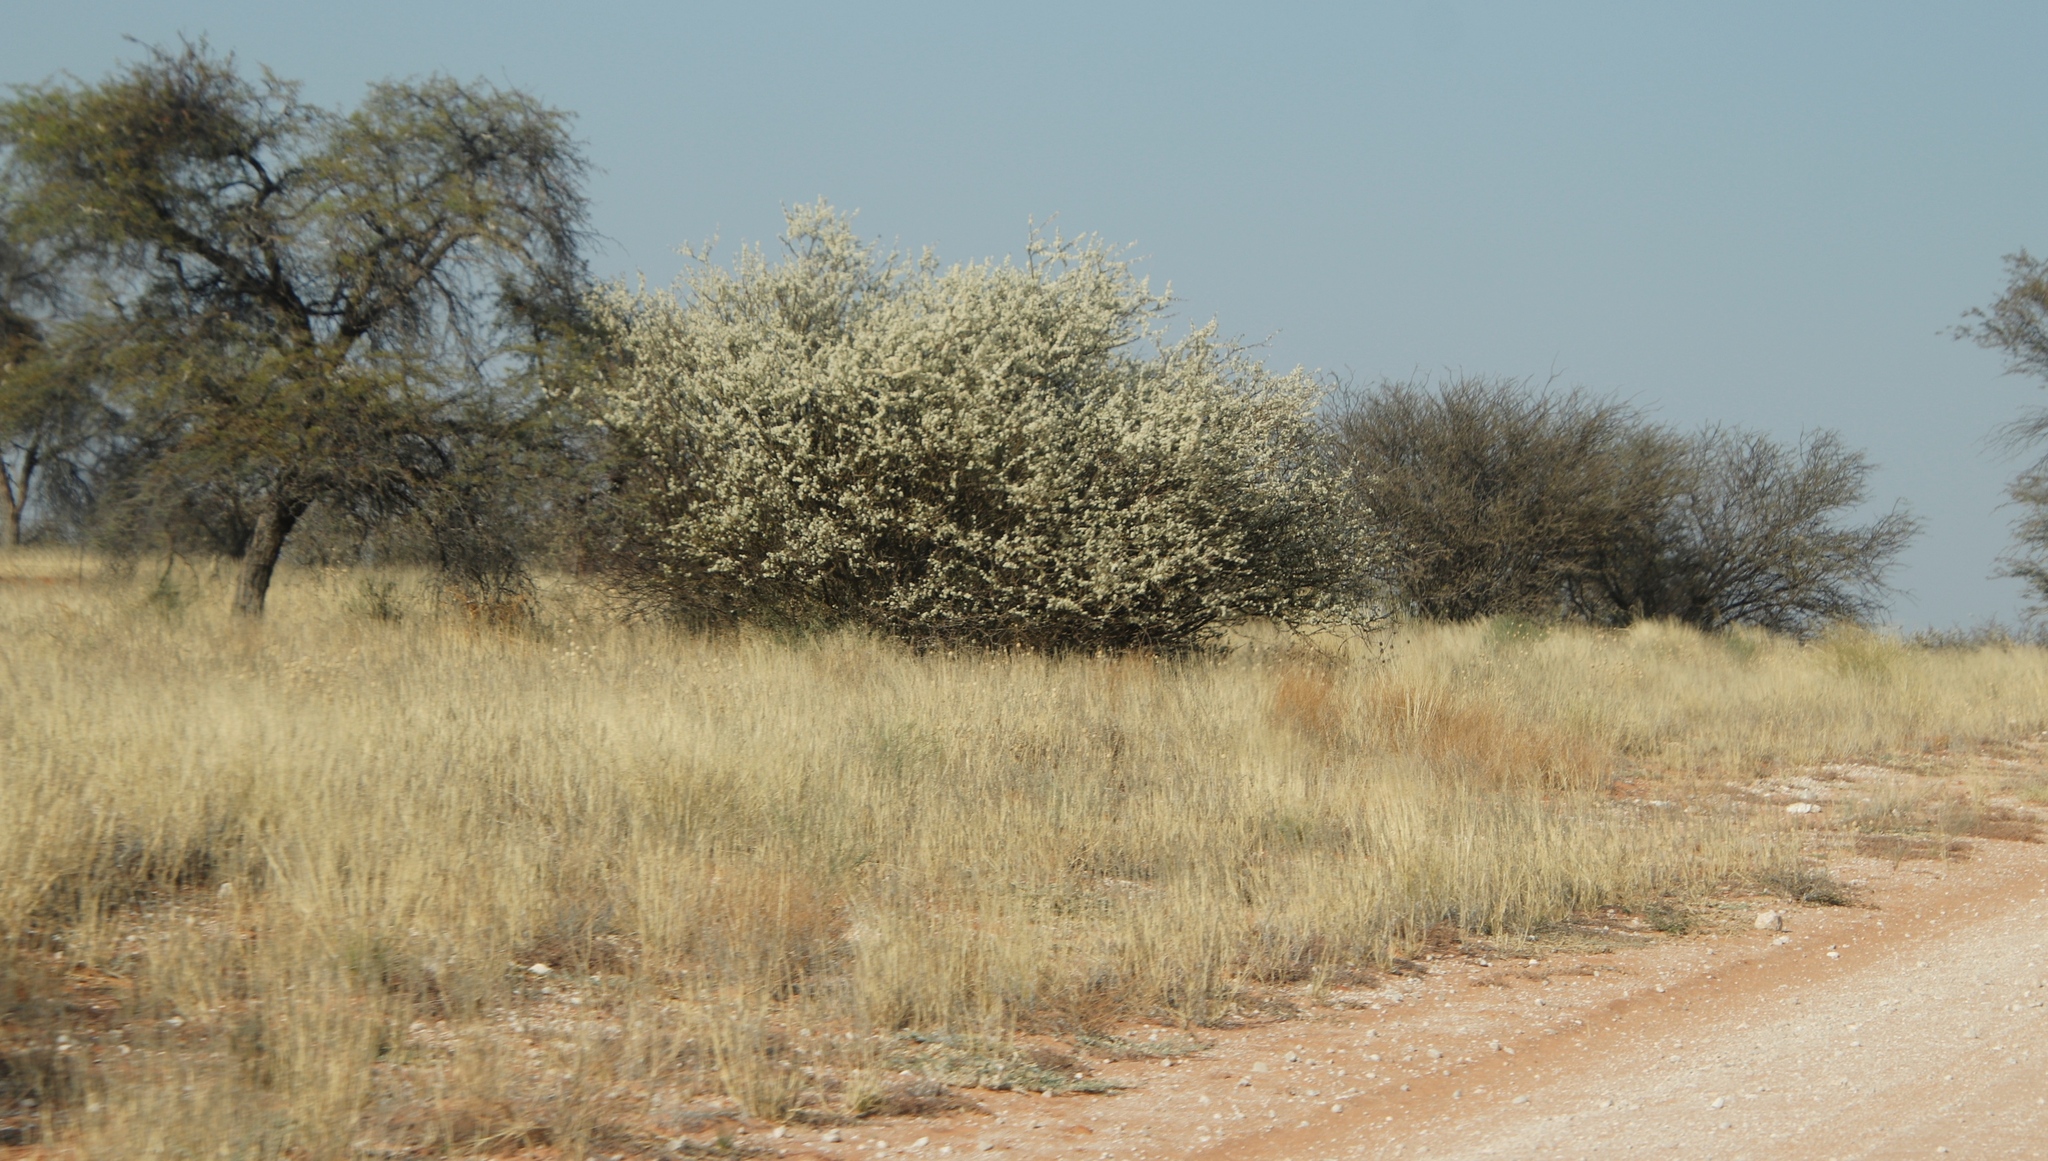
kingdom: Plantae
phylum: Tracheophyta
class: Magnoliopsida
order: Fabales
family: Fabaceae
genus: Senegalia
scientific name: Senegalia mellifera
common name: Hookthorn
